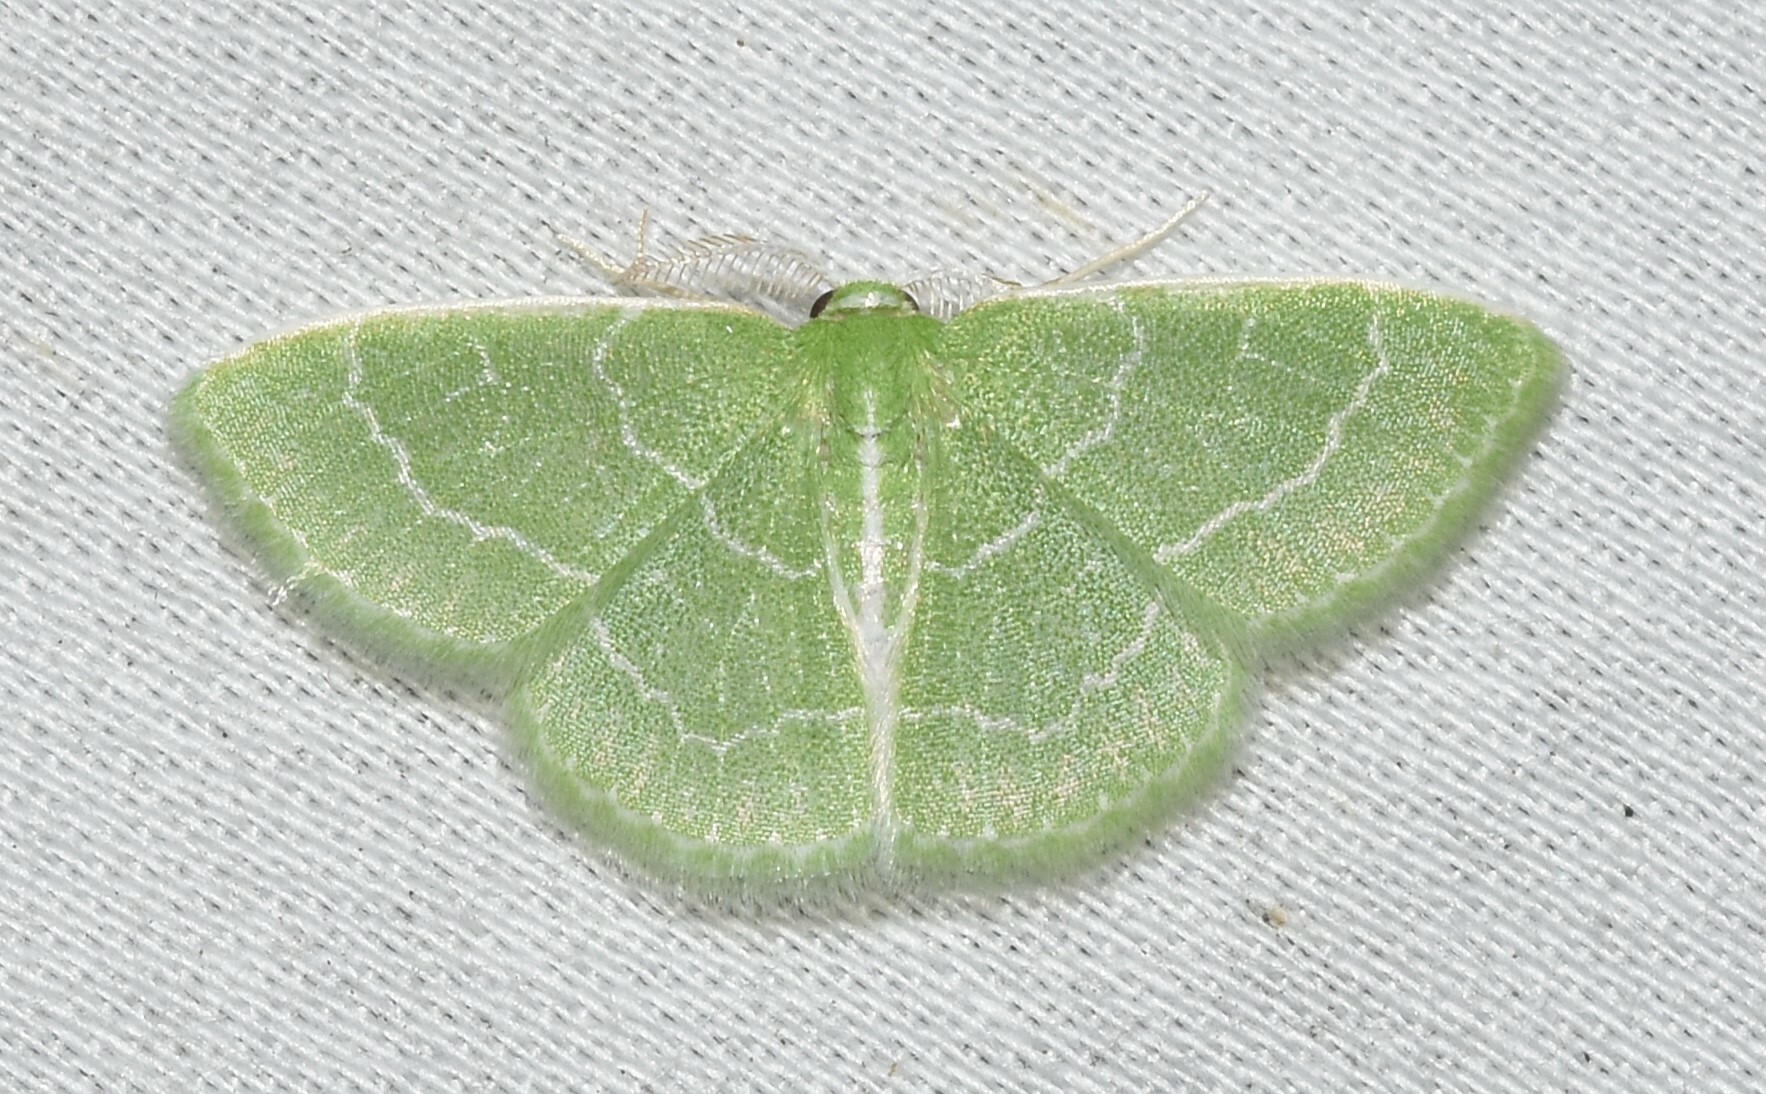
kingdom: Animalia
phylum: Arthropoda
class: Insecta
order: Lepidoptera
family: Geometridae
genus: Synchlora
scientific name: Synchlora aerata
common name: Wavy-lined emerald
